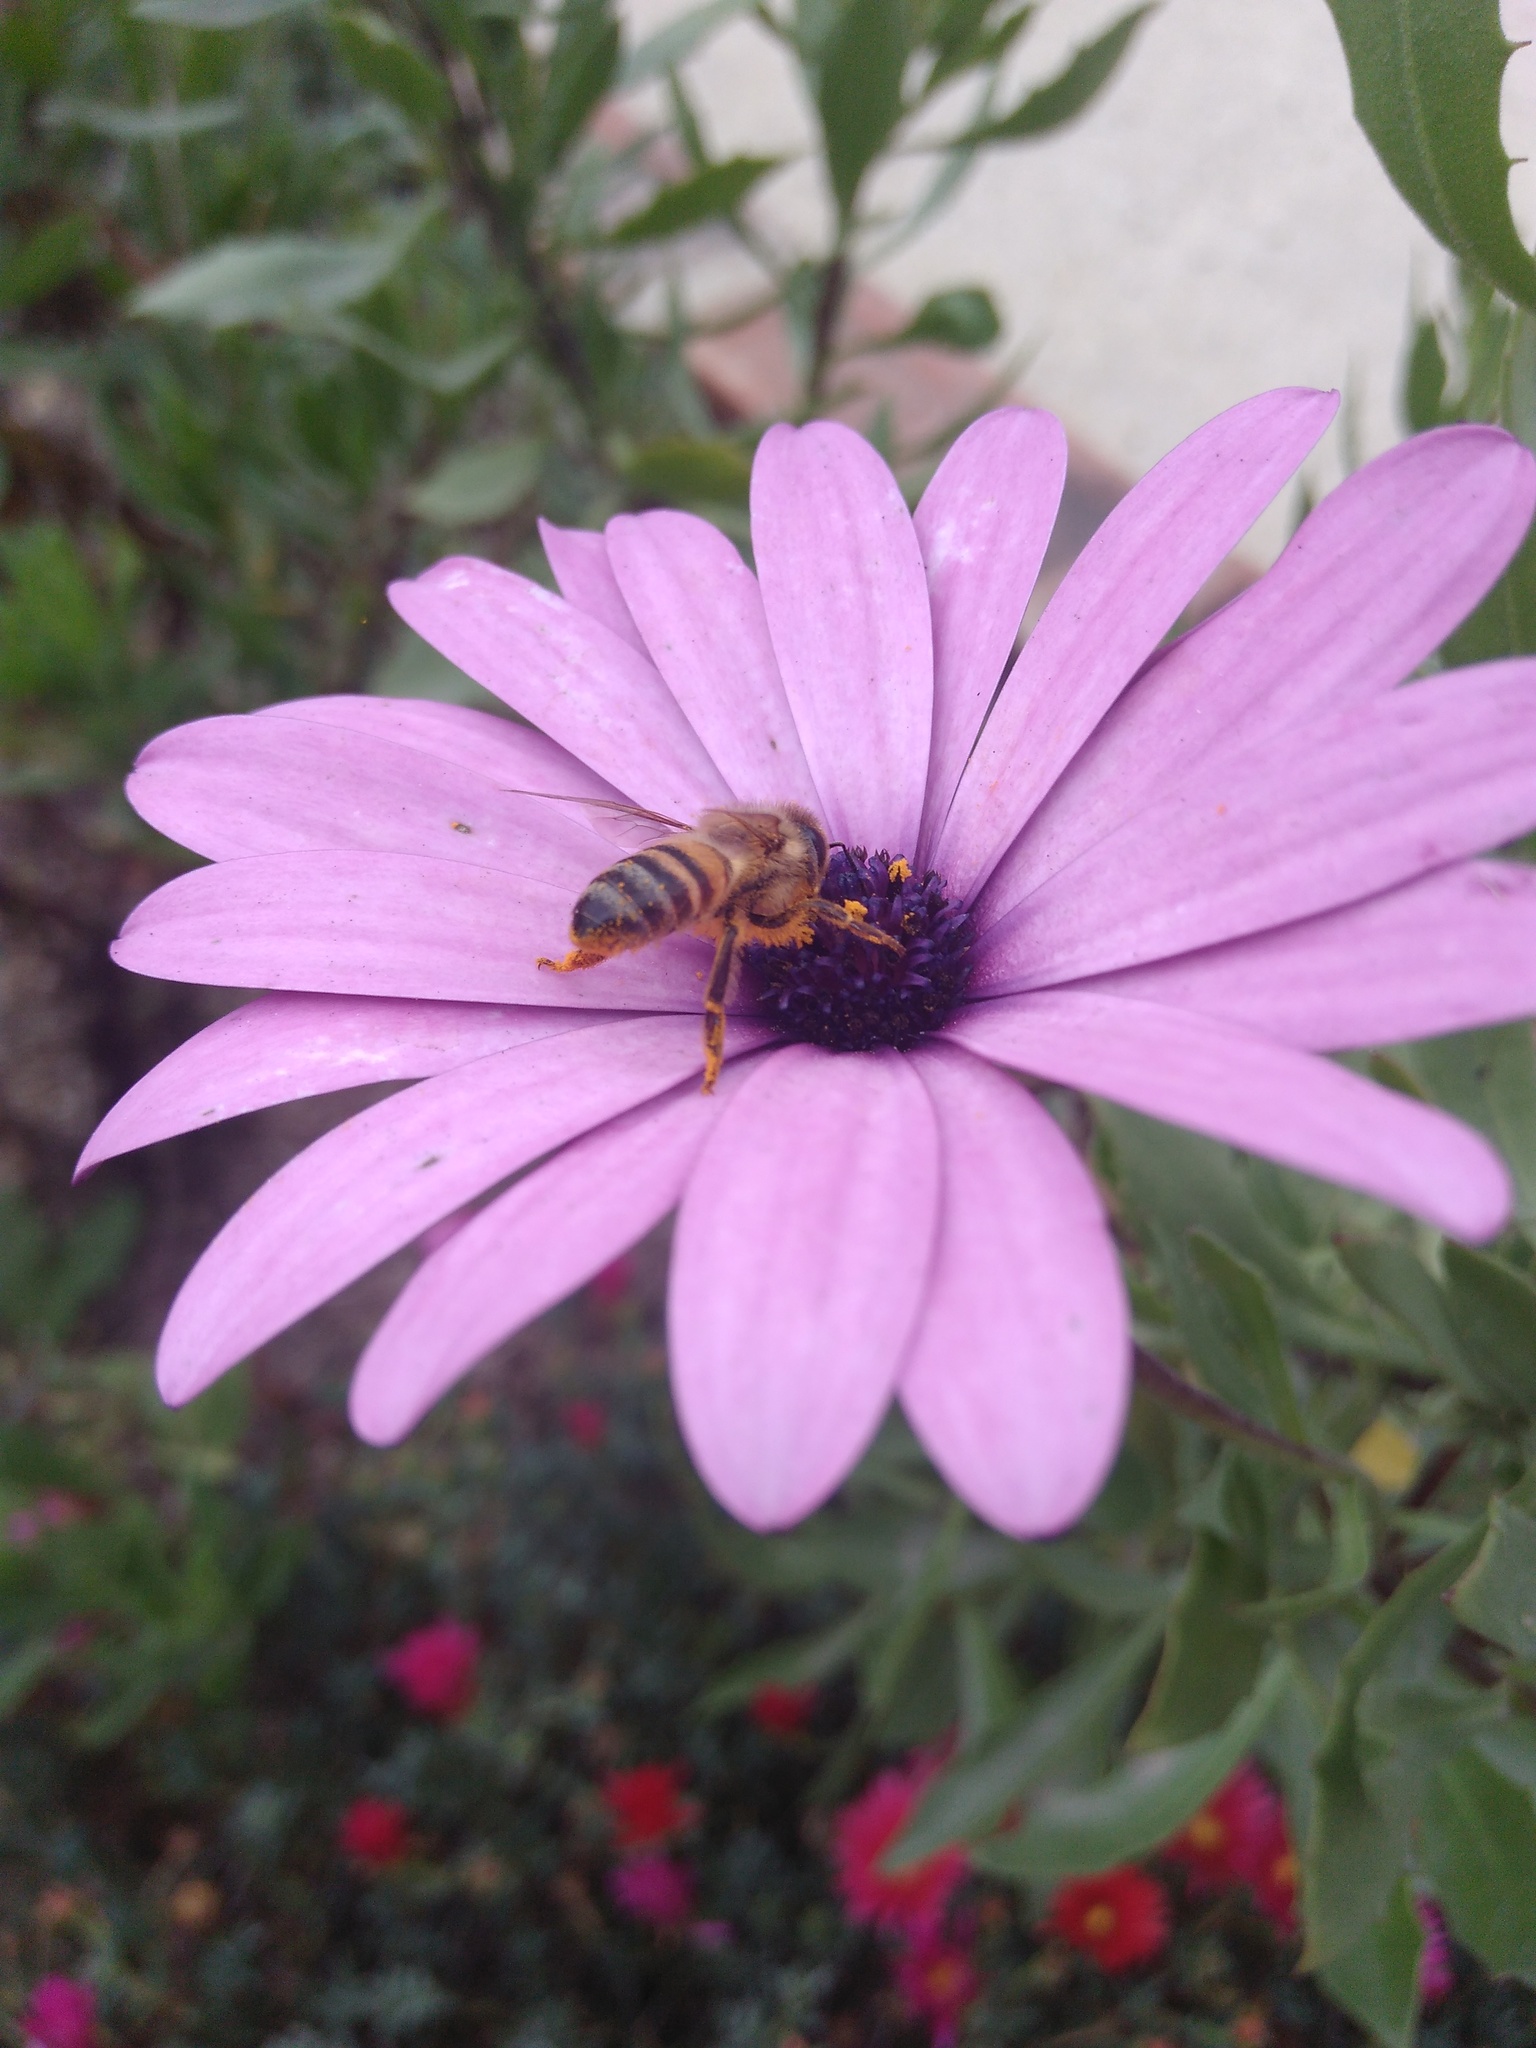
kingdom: Animalia
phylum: Arthropoda
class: Insecta
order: Hymenoptera
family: Apidae
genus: Apis
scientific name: Apis mellifera
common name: Honey bee
